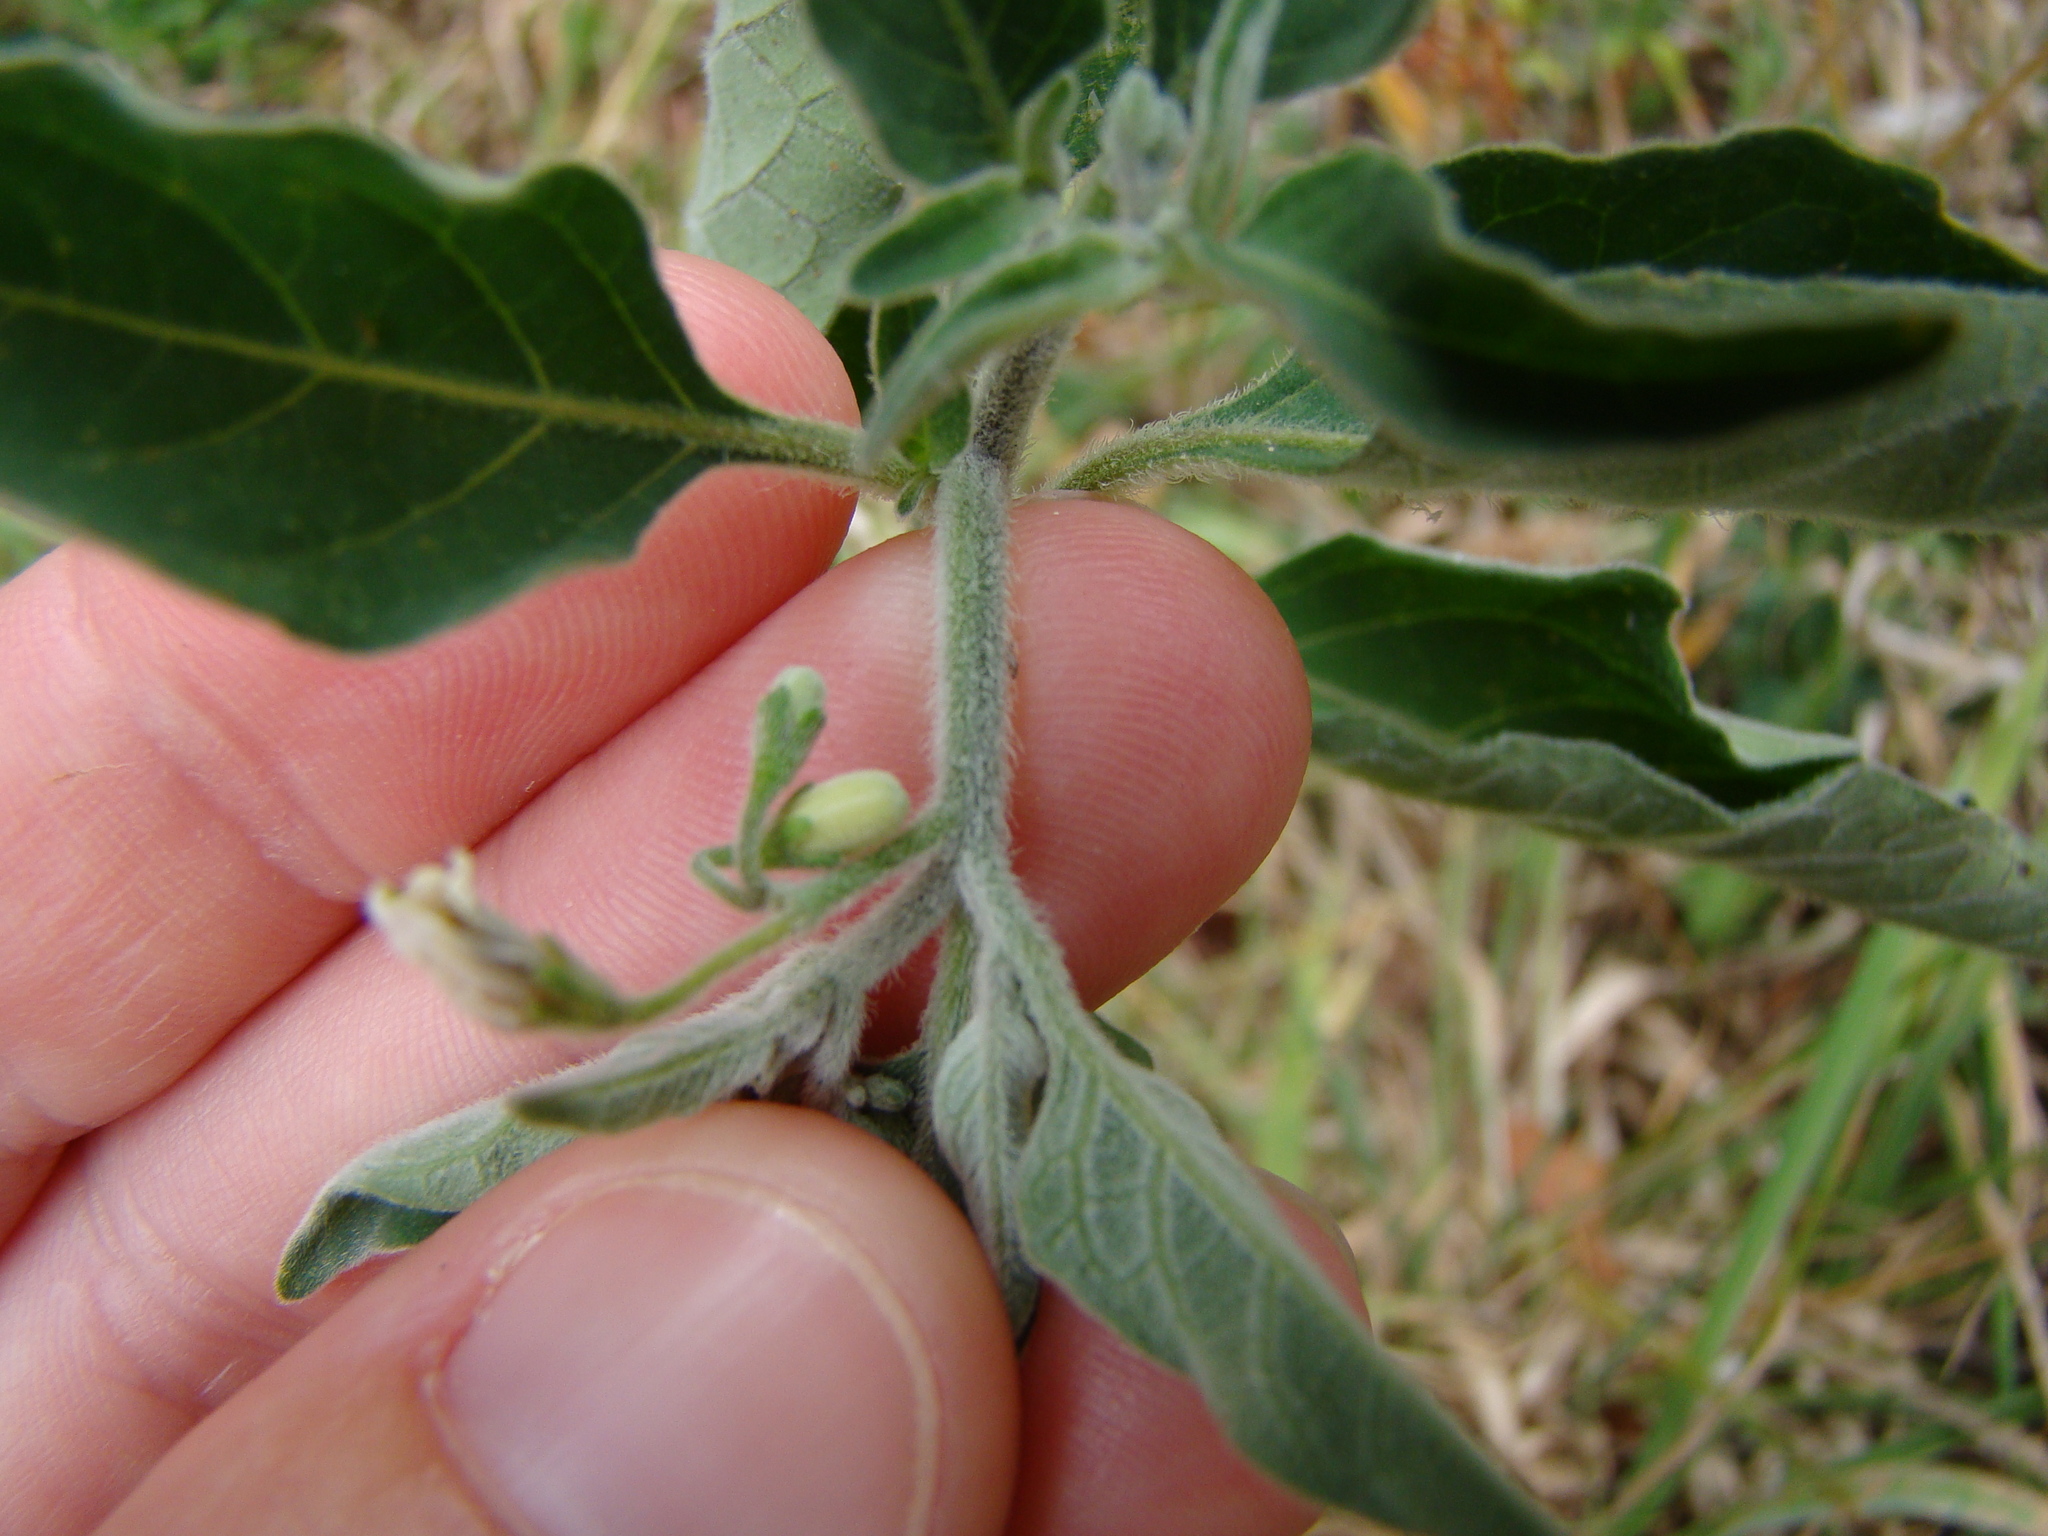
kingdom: Plantae
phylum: Tracheophyta
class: Magnoliopsida
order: Solanales
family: Solanaceae
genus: Solanum
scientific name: Solanum chenopodioides
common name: Tall nightshade
